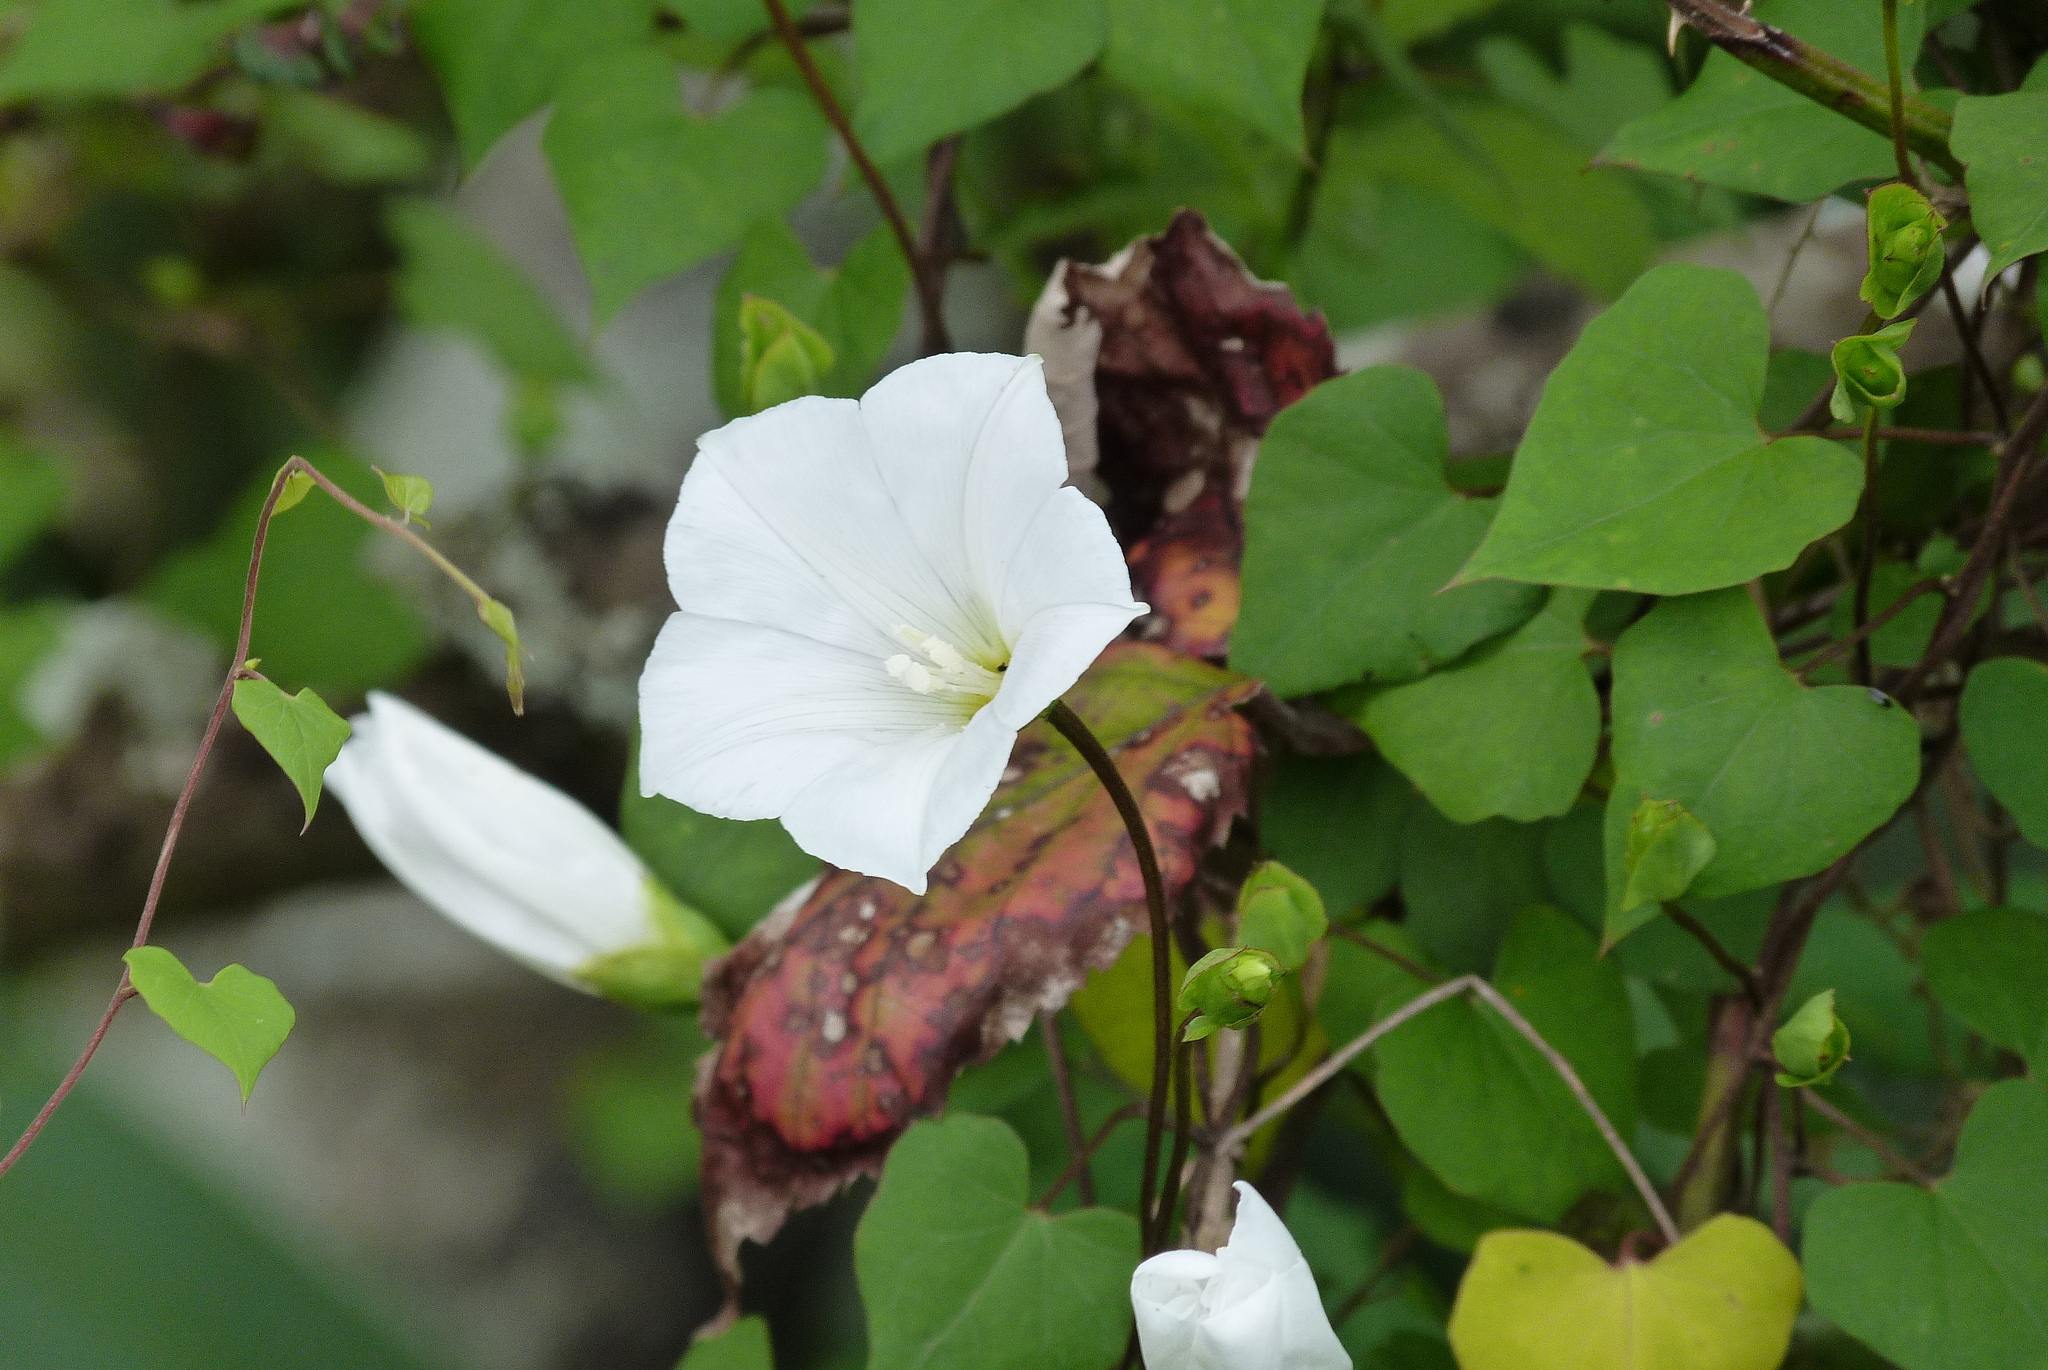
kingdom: Plantae
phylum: Tracheophyta
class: Magnoliopsida
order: Solanales
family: Convolvulaceae
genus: Calystegia
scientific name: Calystegia tuguriorum
